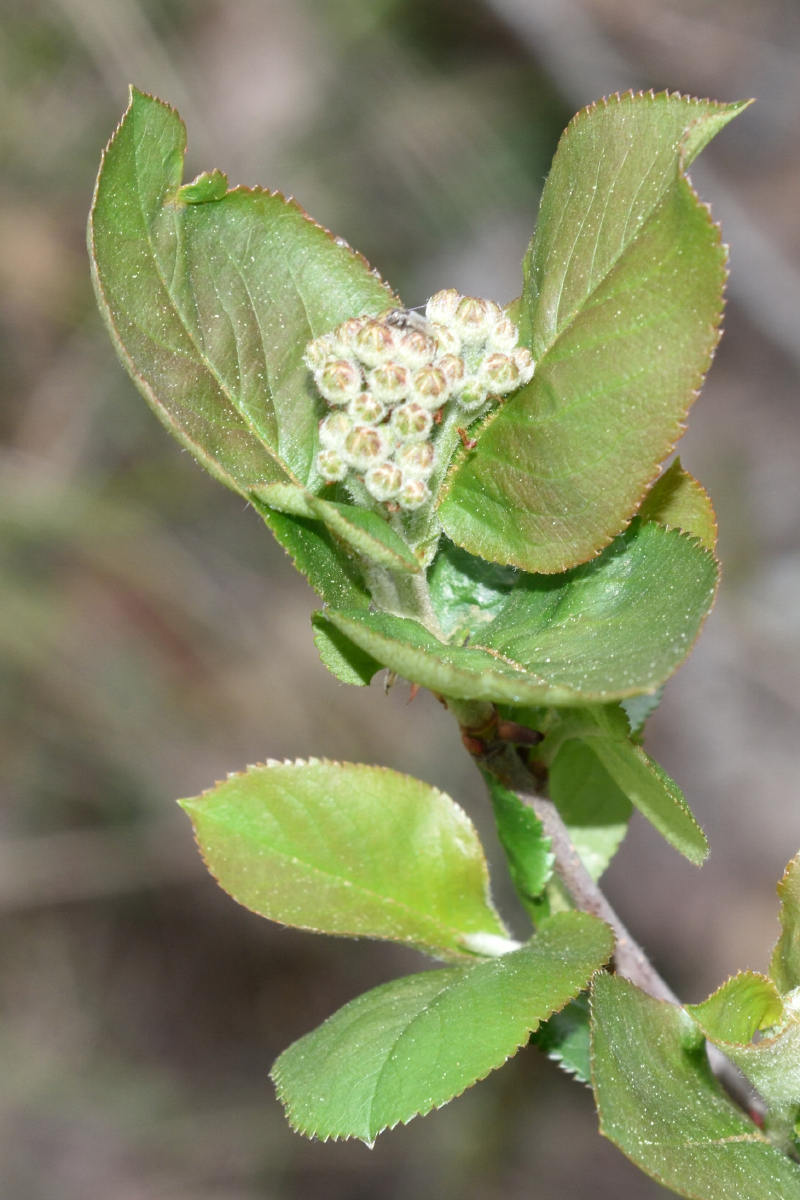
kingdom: Plantae
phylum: Tracheophyta
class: Magnoliopsida
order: Rosales
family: Rosaceae
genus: Sorbaronia
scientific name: Sorbaronia arsenii
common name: Arsène's mountain-ash
